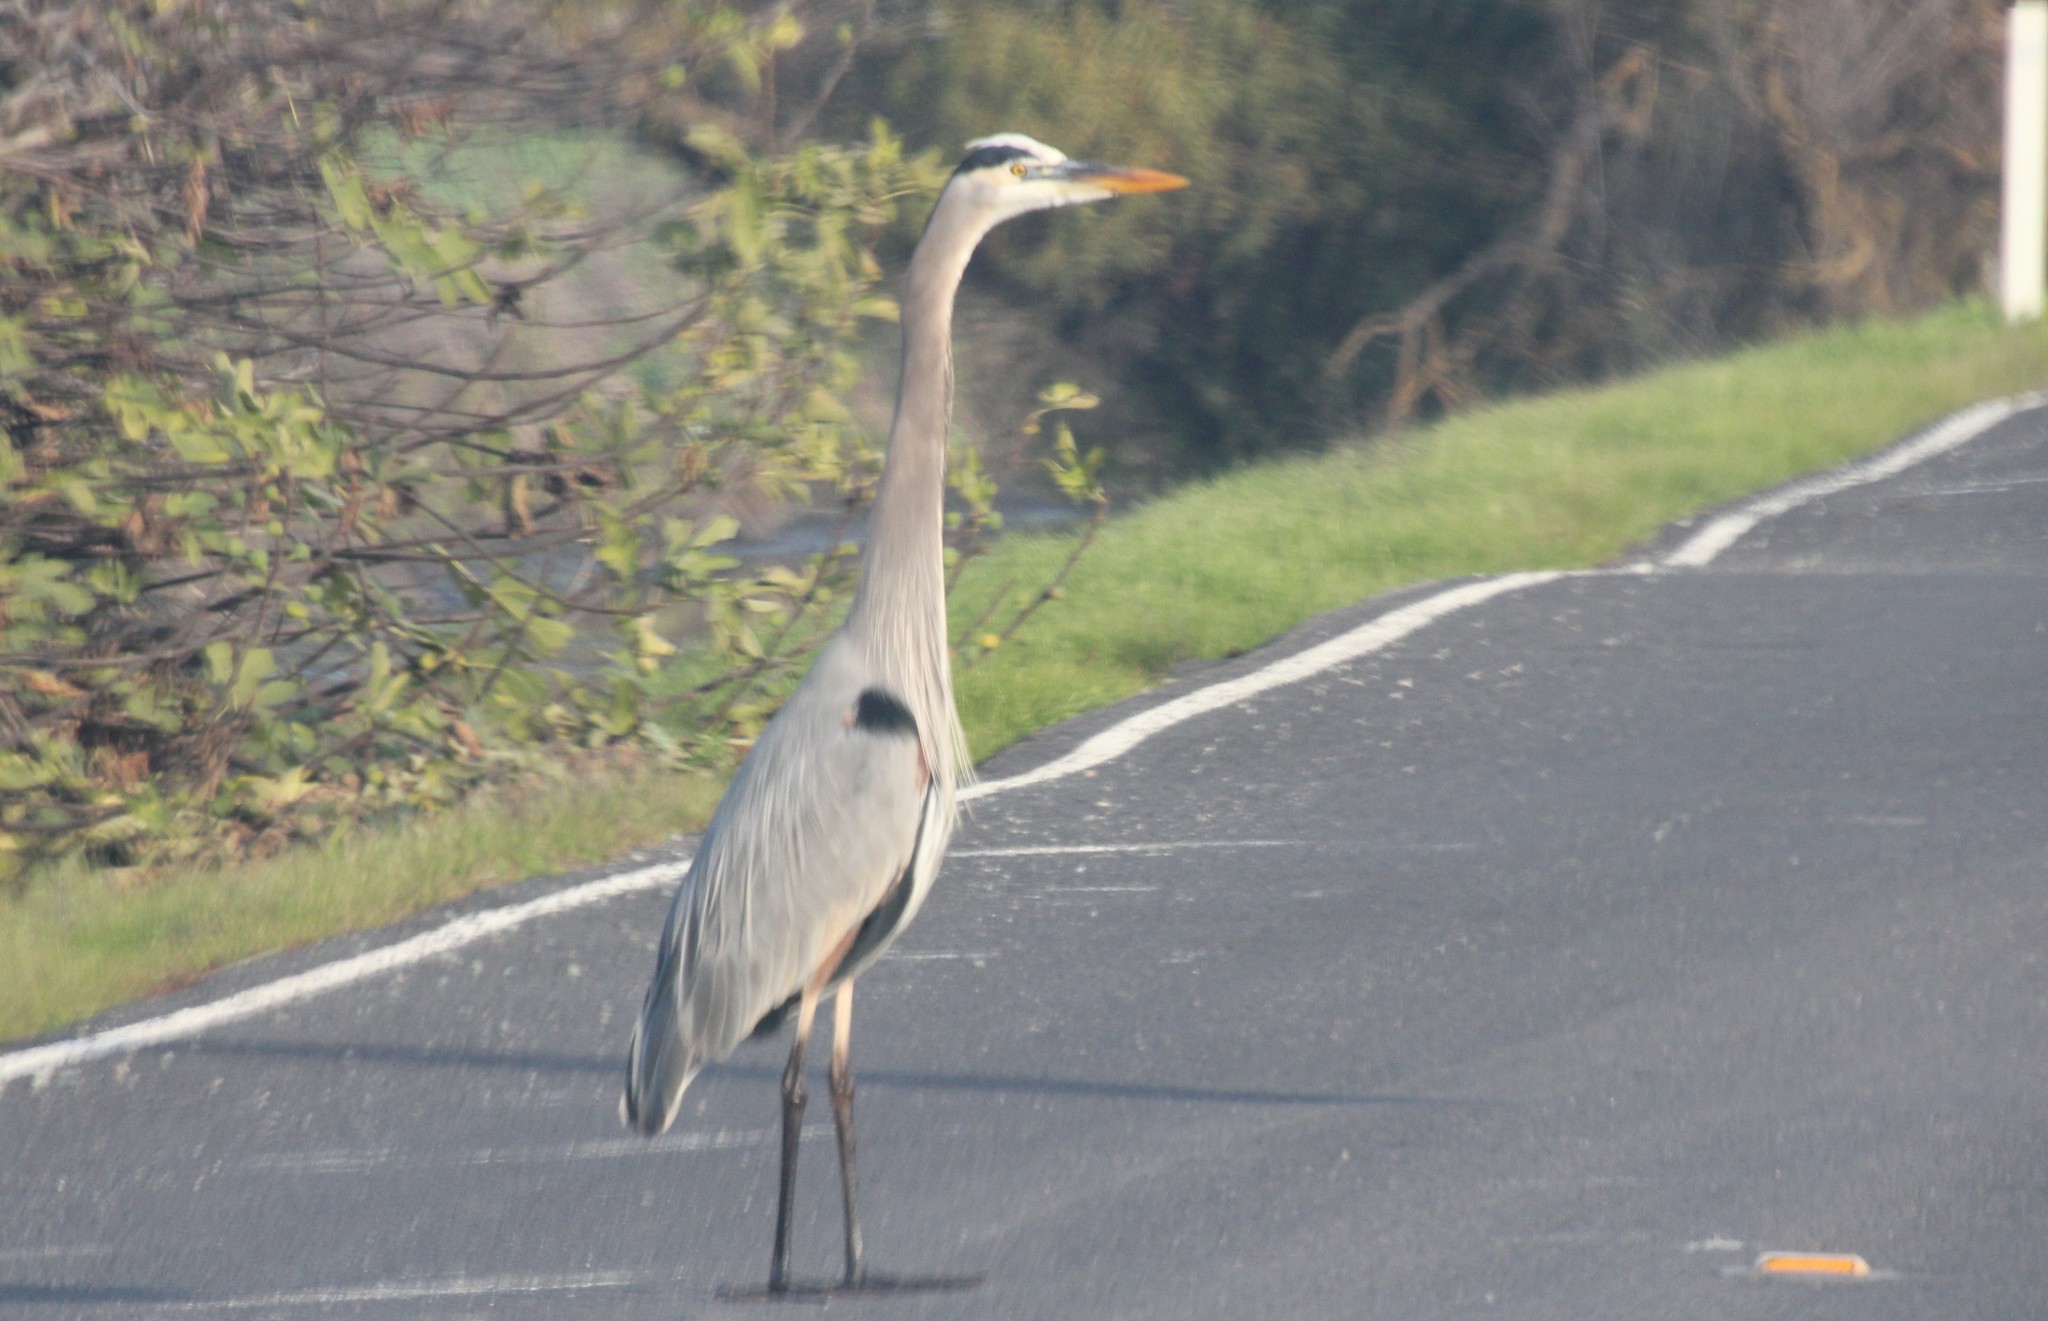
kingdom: Animalia
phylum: Chordata
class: Aves
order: Pelecaniformes
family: Ardeidae
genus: Ardea
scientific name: Ardea herodias
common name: Great blue heron
